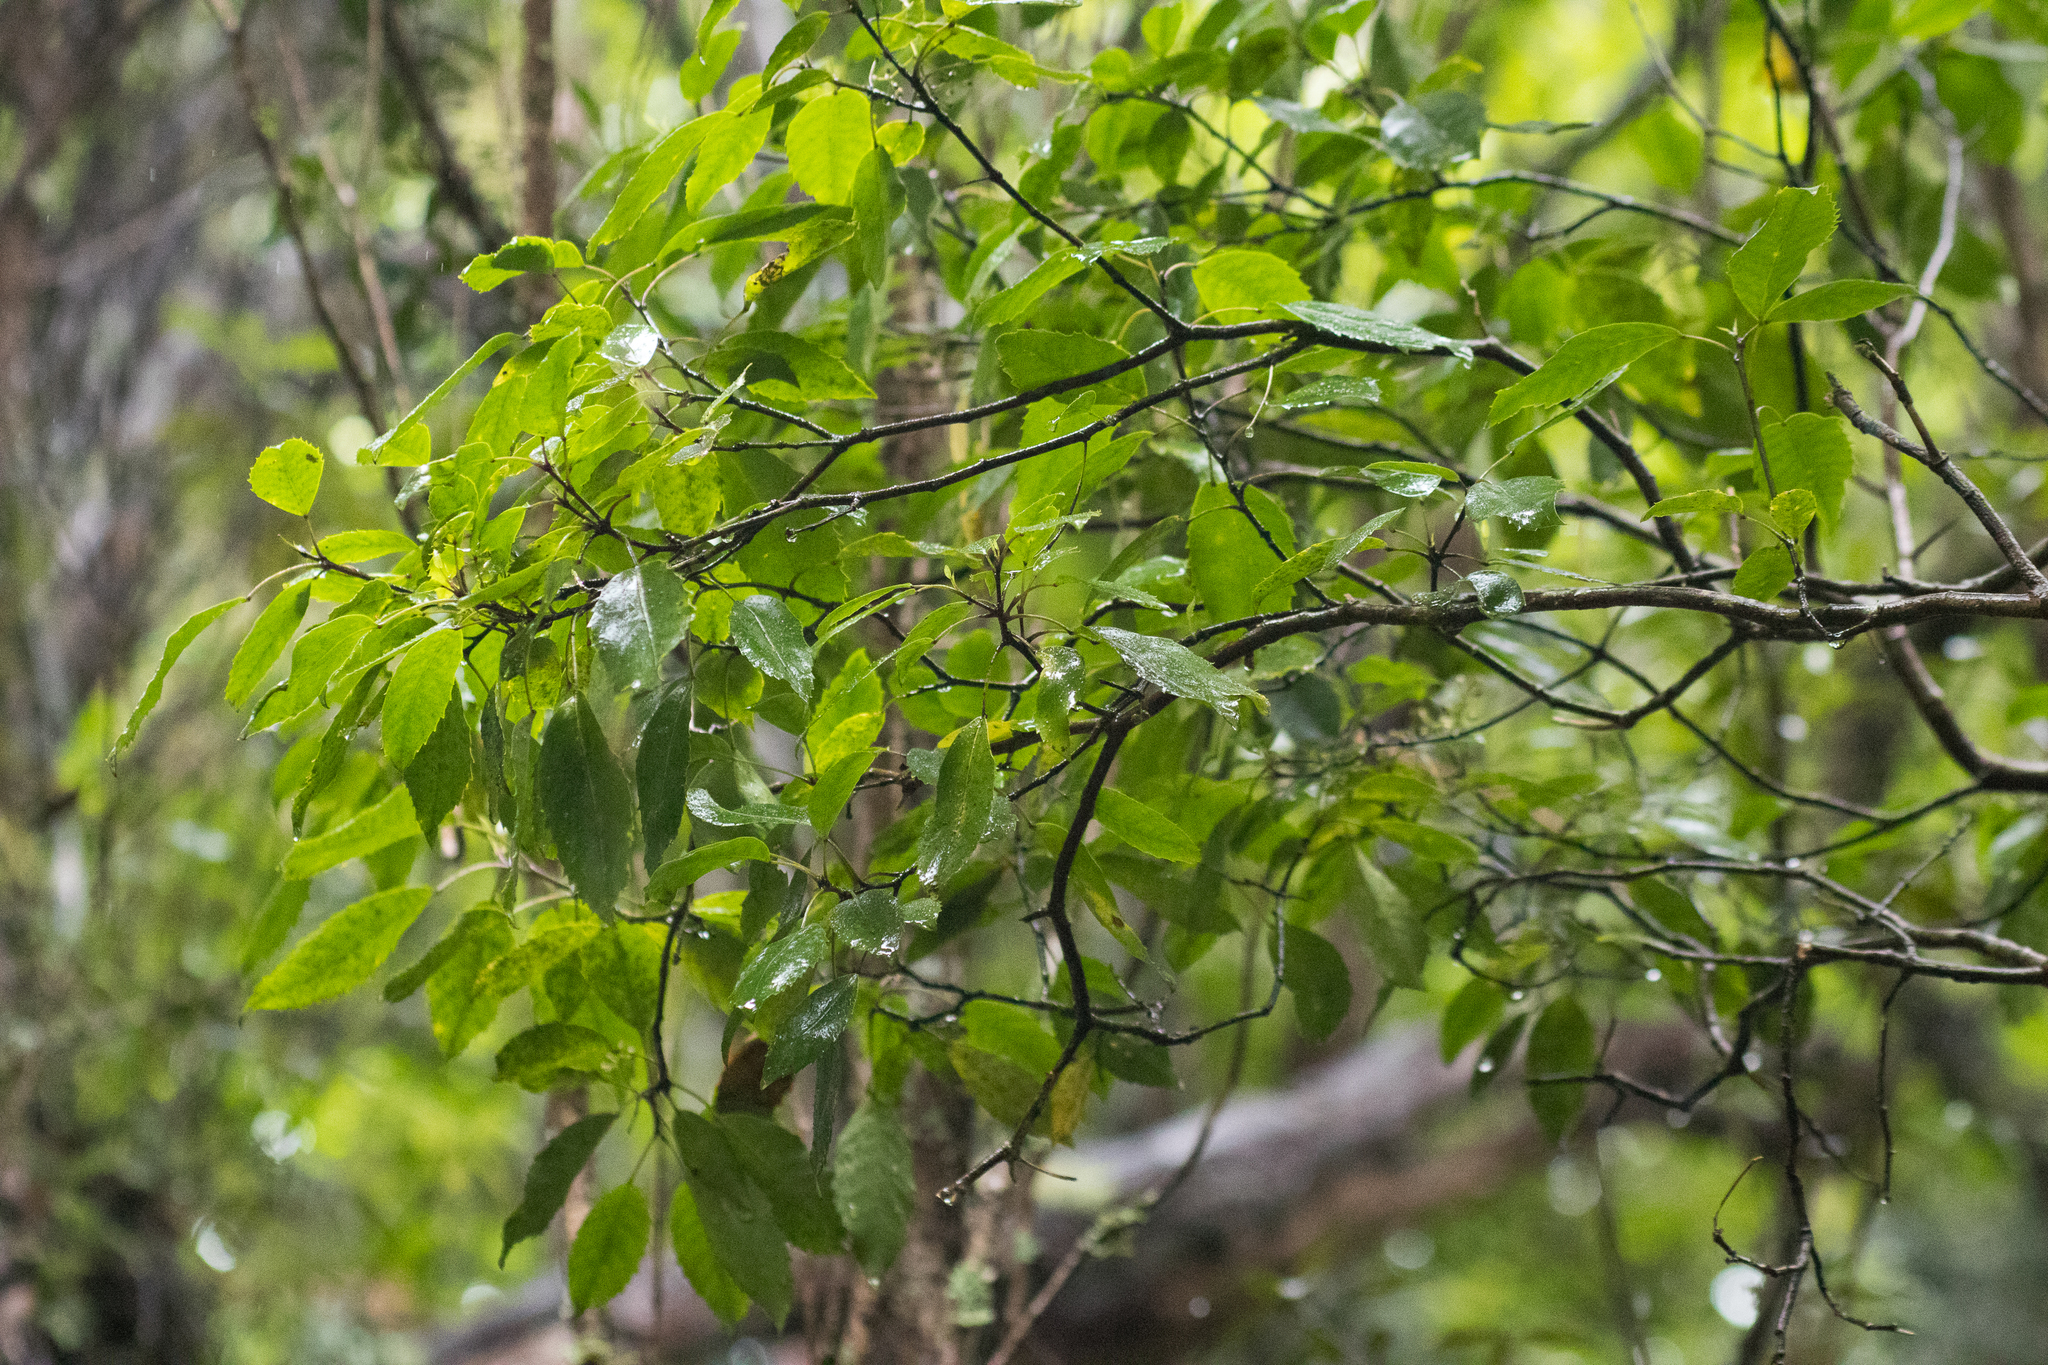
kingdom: Plantae
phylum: Tracheophyta
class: Magnoliopsida
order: Apiales
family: Araliaceae
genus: Raukaua
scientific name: Raukaua simplex
